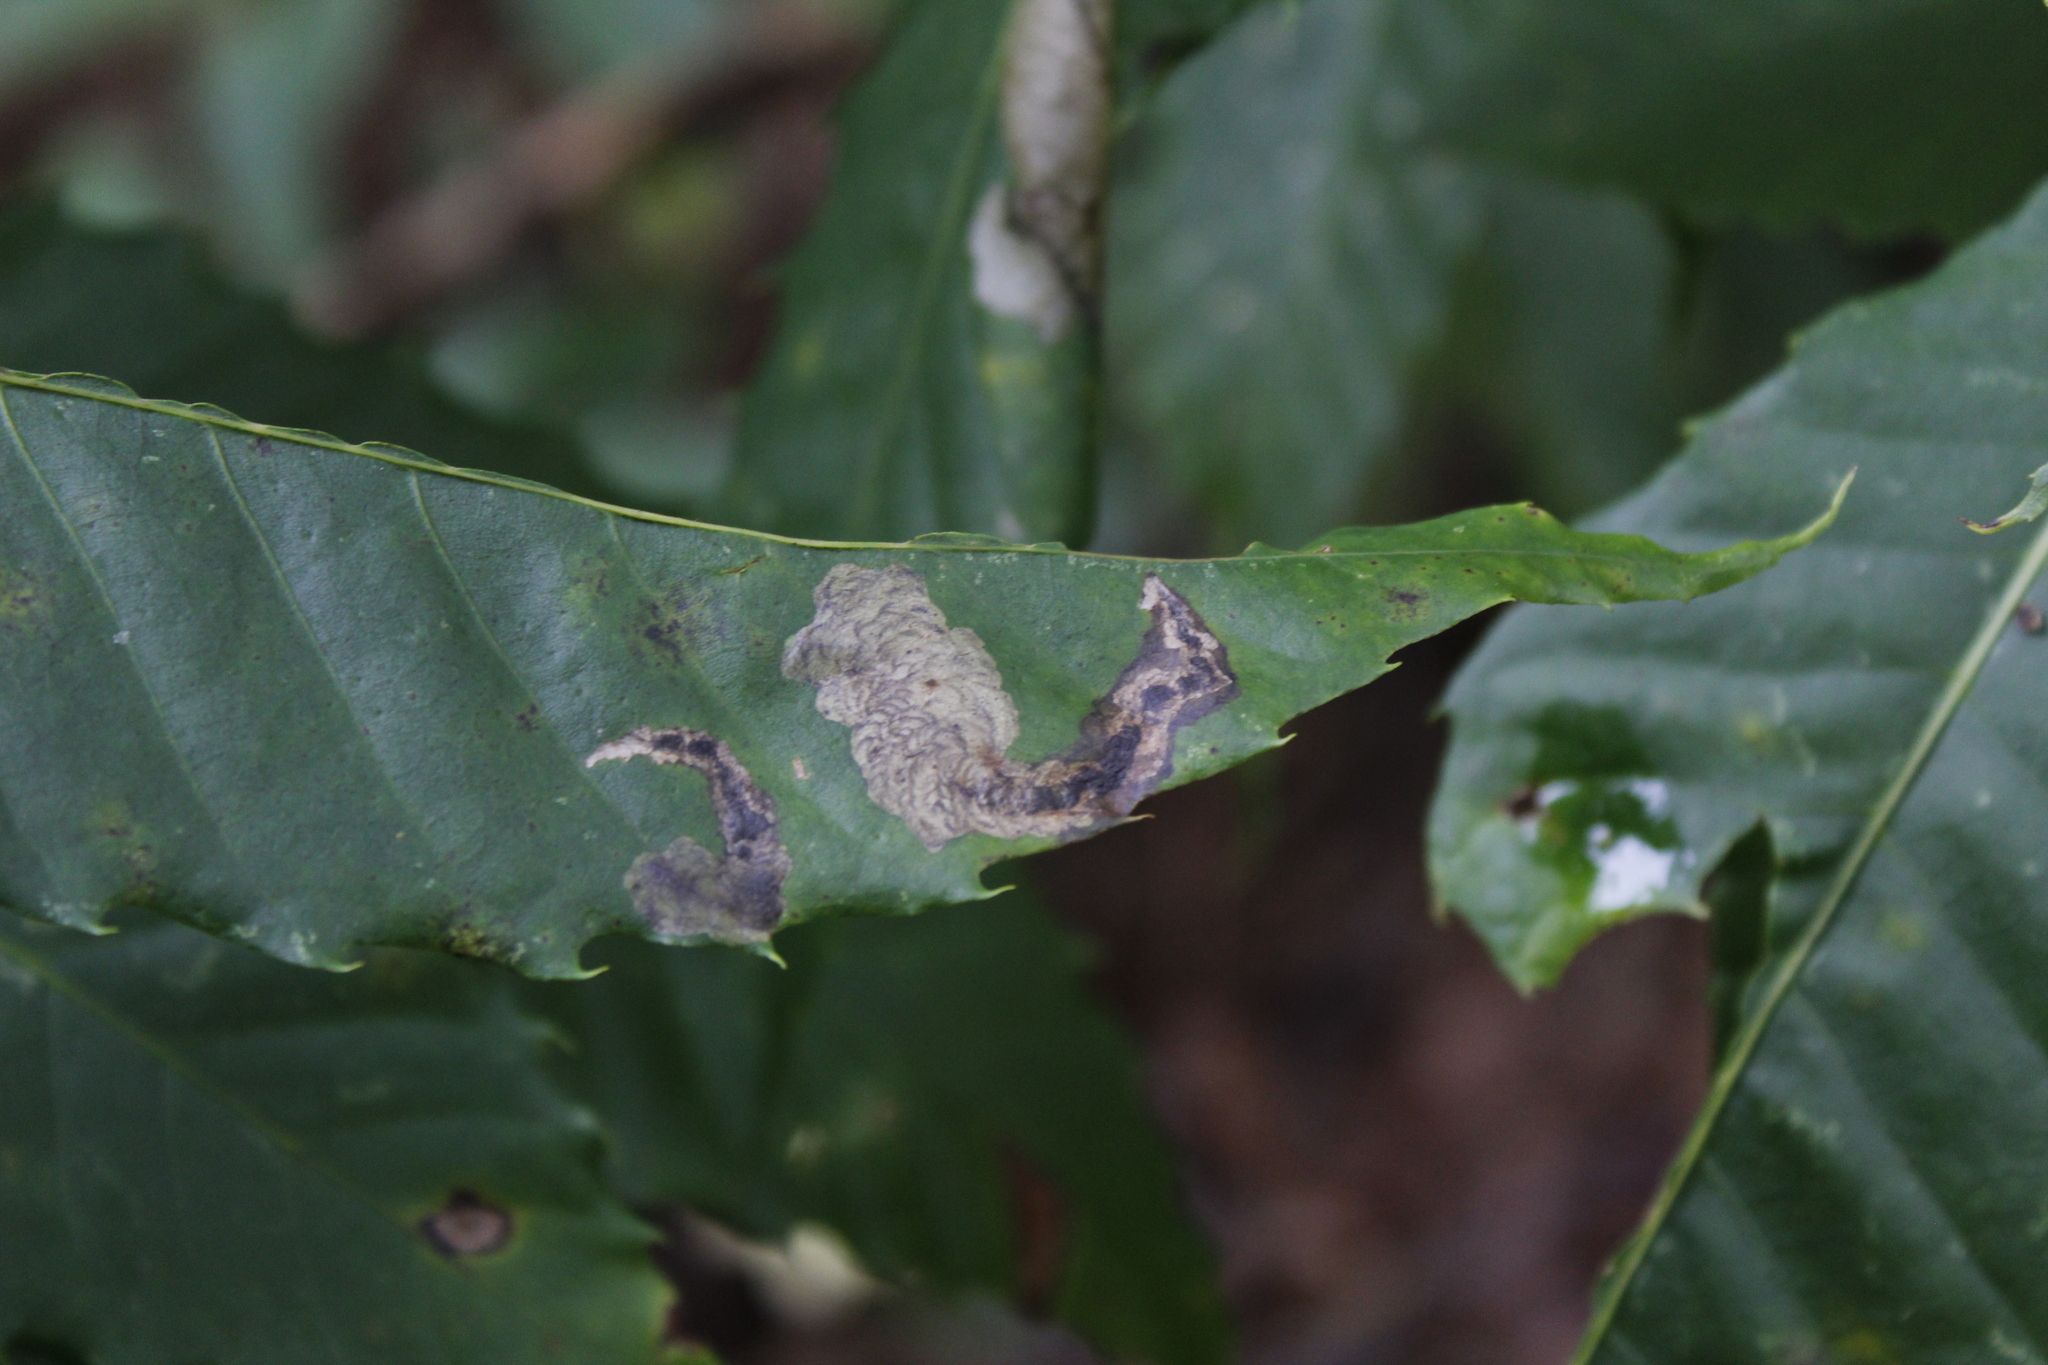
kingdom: Animalia
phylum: Arthropoda
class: Insecta
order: Lepidoptera
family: Tischeriidae
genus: Coptotriche
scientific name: Coptotriche castaneaeella
